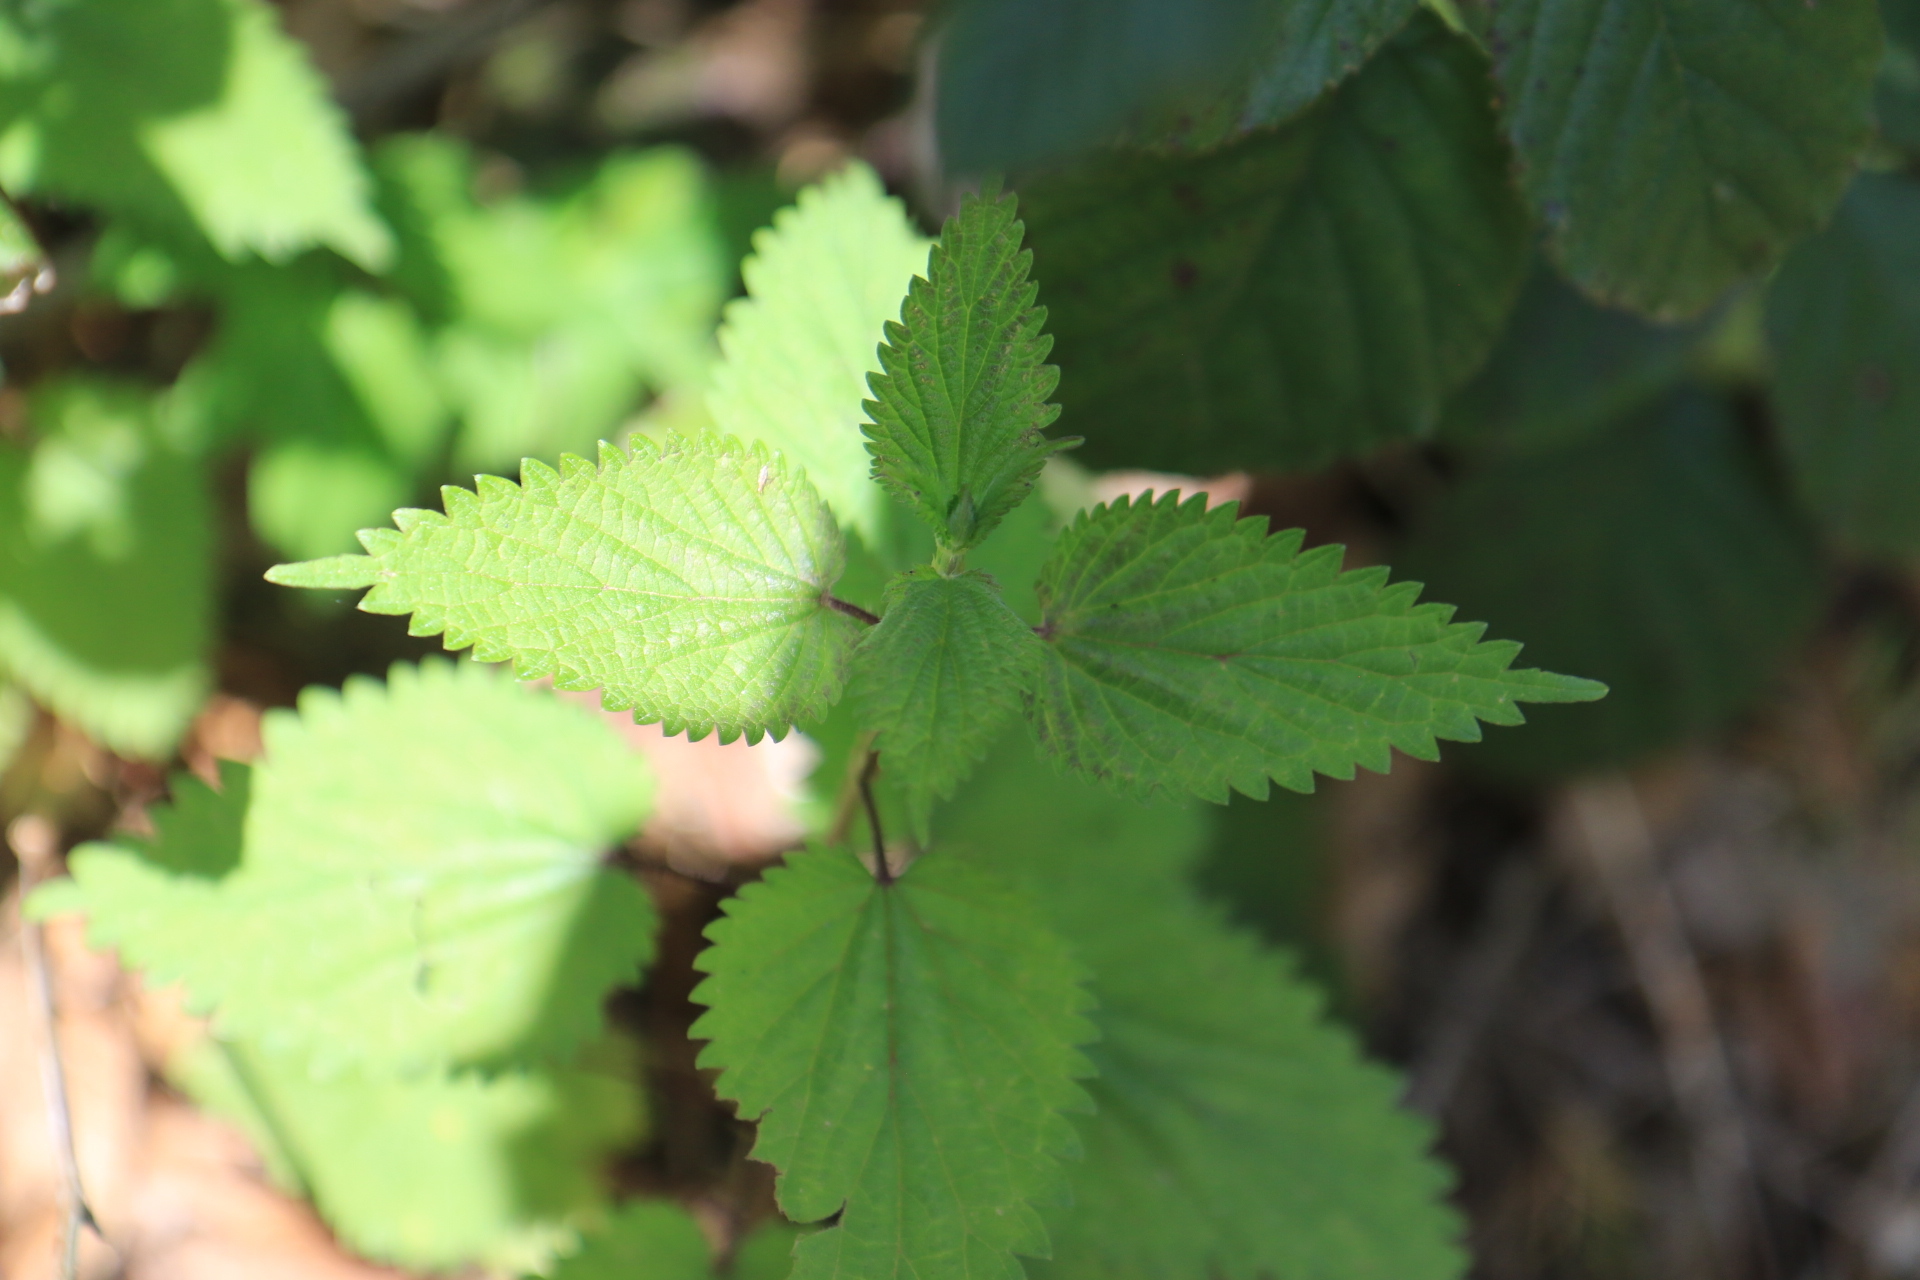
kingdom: Plantae
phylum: Tracheophyta
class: Magnoliopsida
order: Rosales
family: Urticaceae
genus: Urtica
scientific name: Urtica dioica
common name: Common nettle
